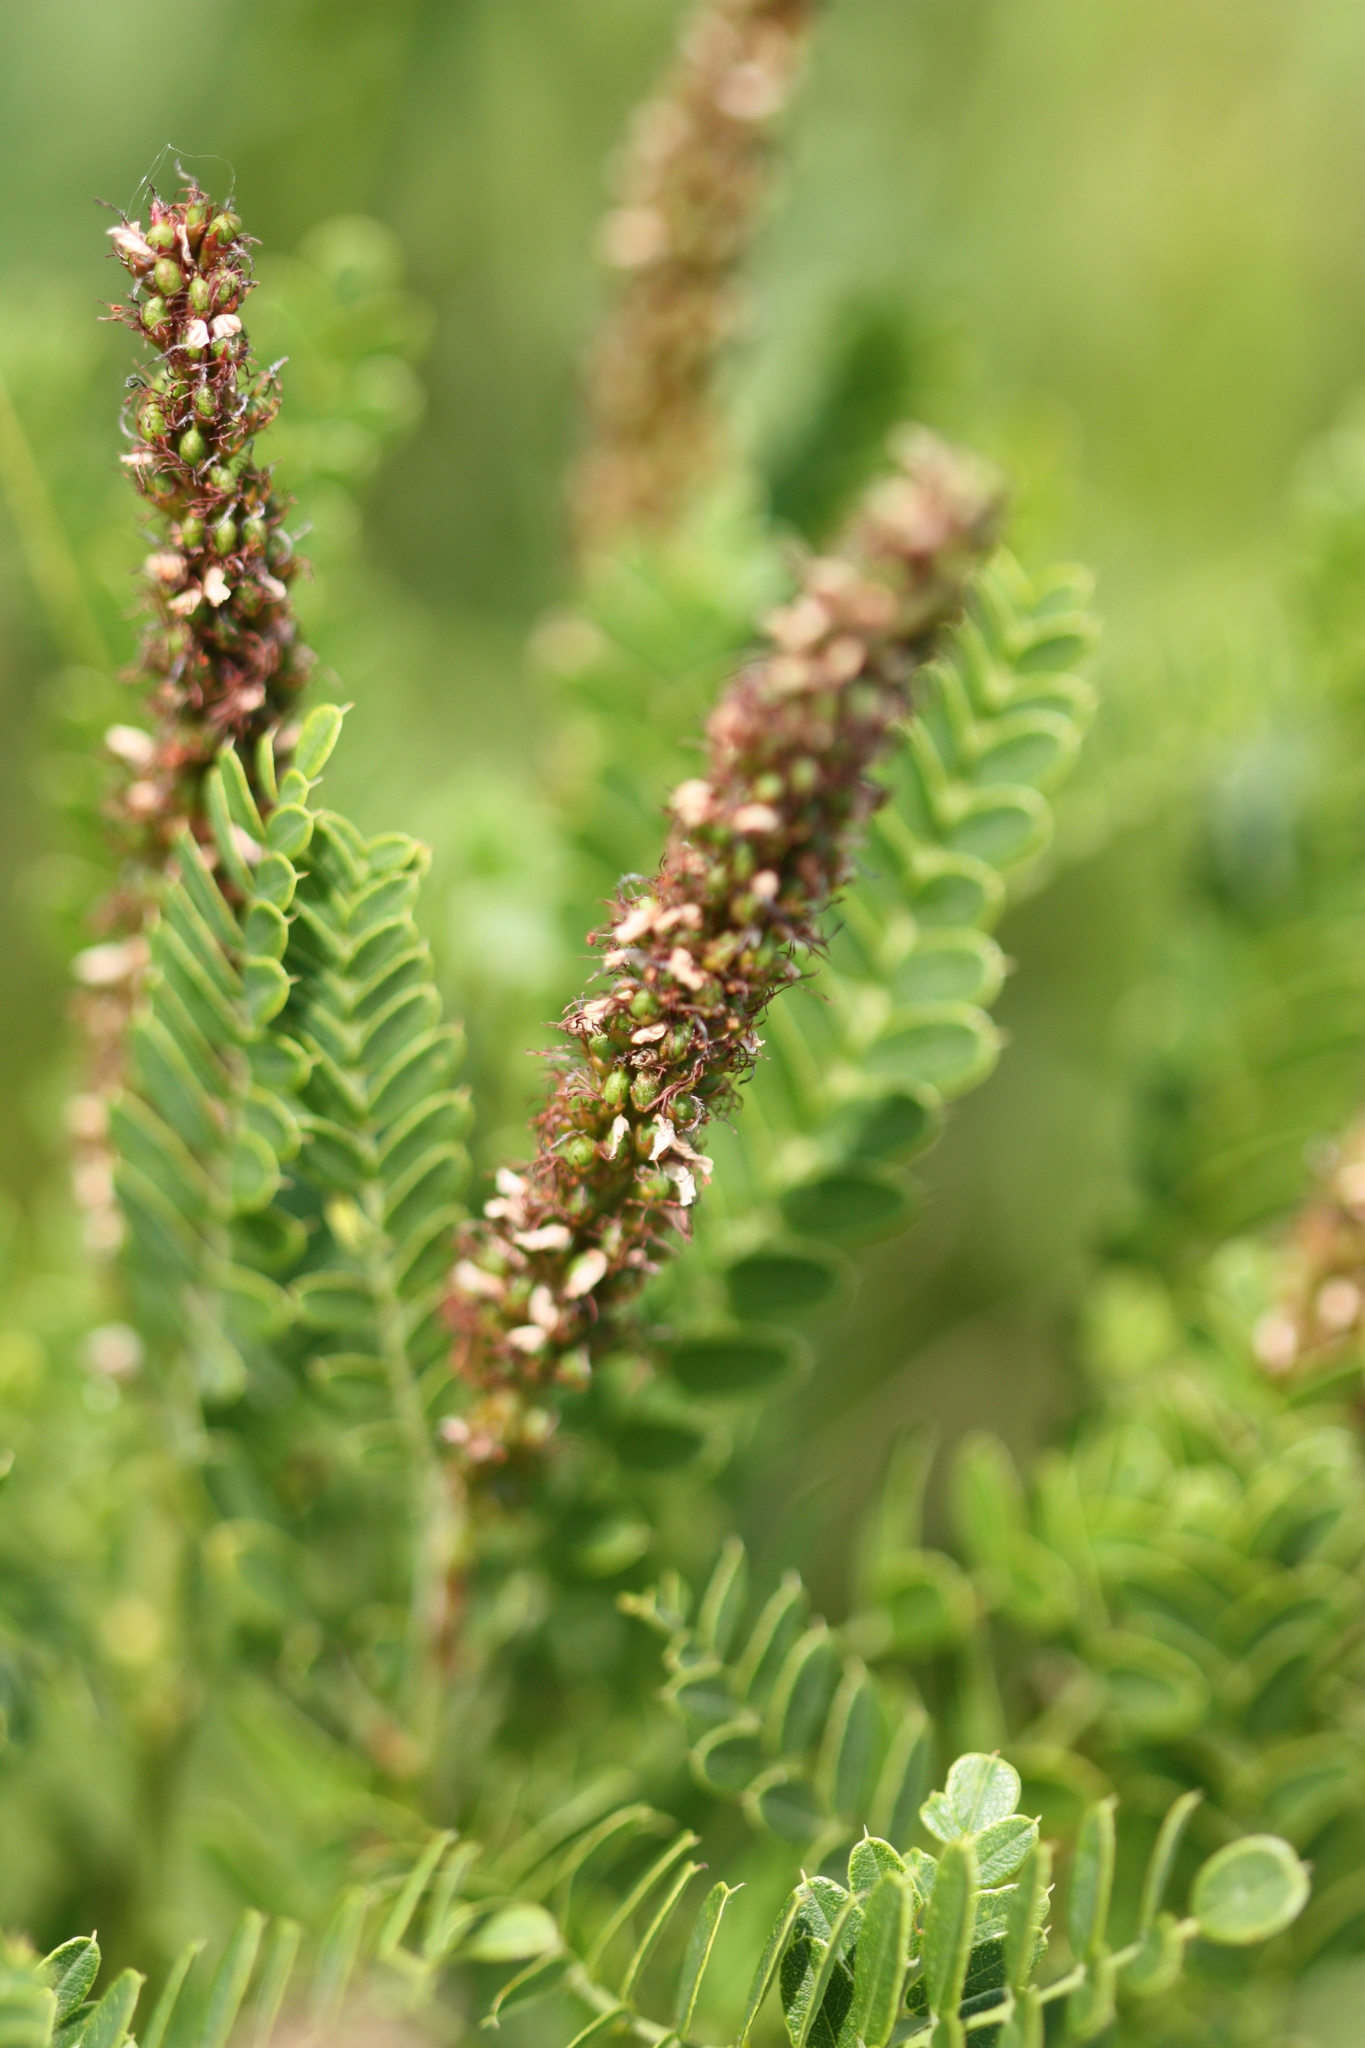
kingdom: Plantae
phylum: Tracheophyta
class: Magnoliopsida
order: Fabales
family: Fabaceae
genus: Amorpha
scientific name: Amorpha nana
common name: Fragrant false indigo
